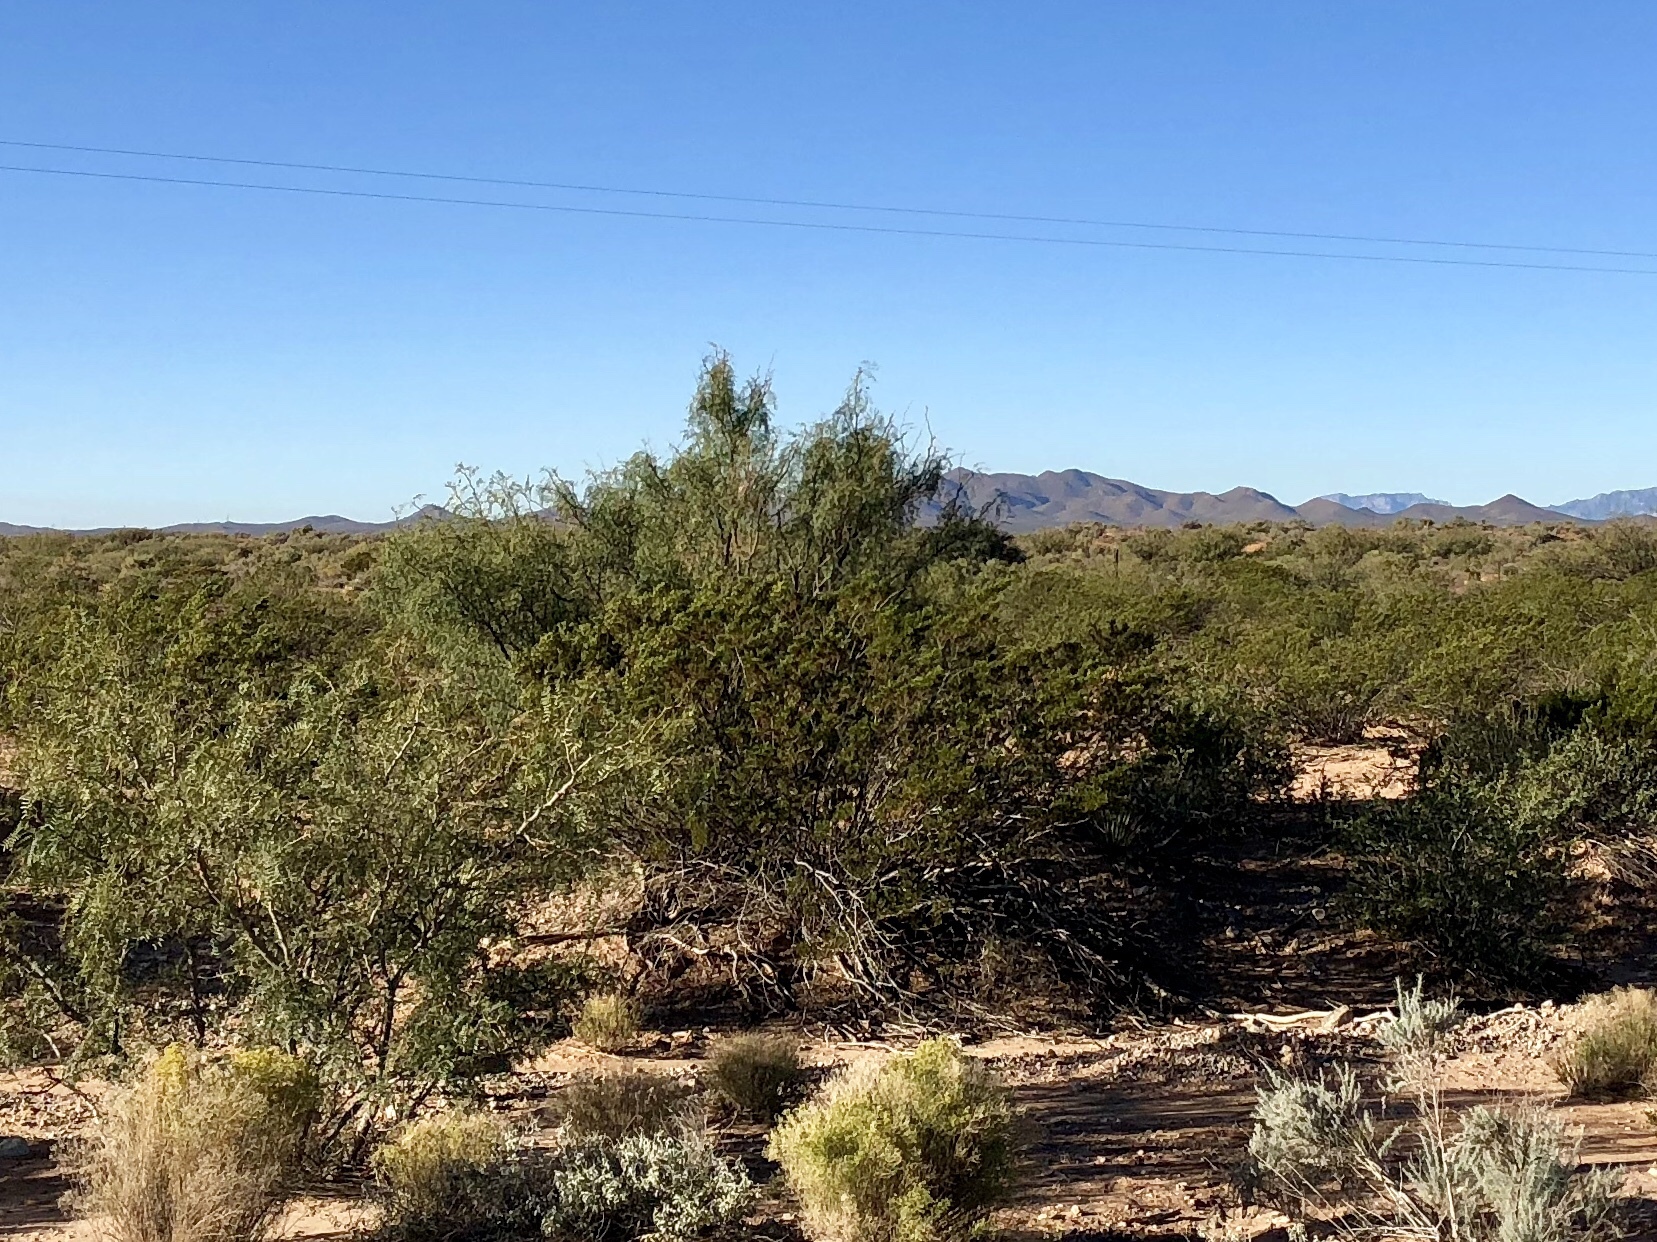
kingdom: Plantae
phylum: Tracheophyta
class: Magnoliopsida
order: Zygophyllales
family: Zygophyllaceae
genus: Larrea
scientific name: Larrea tridentata
